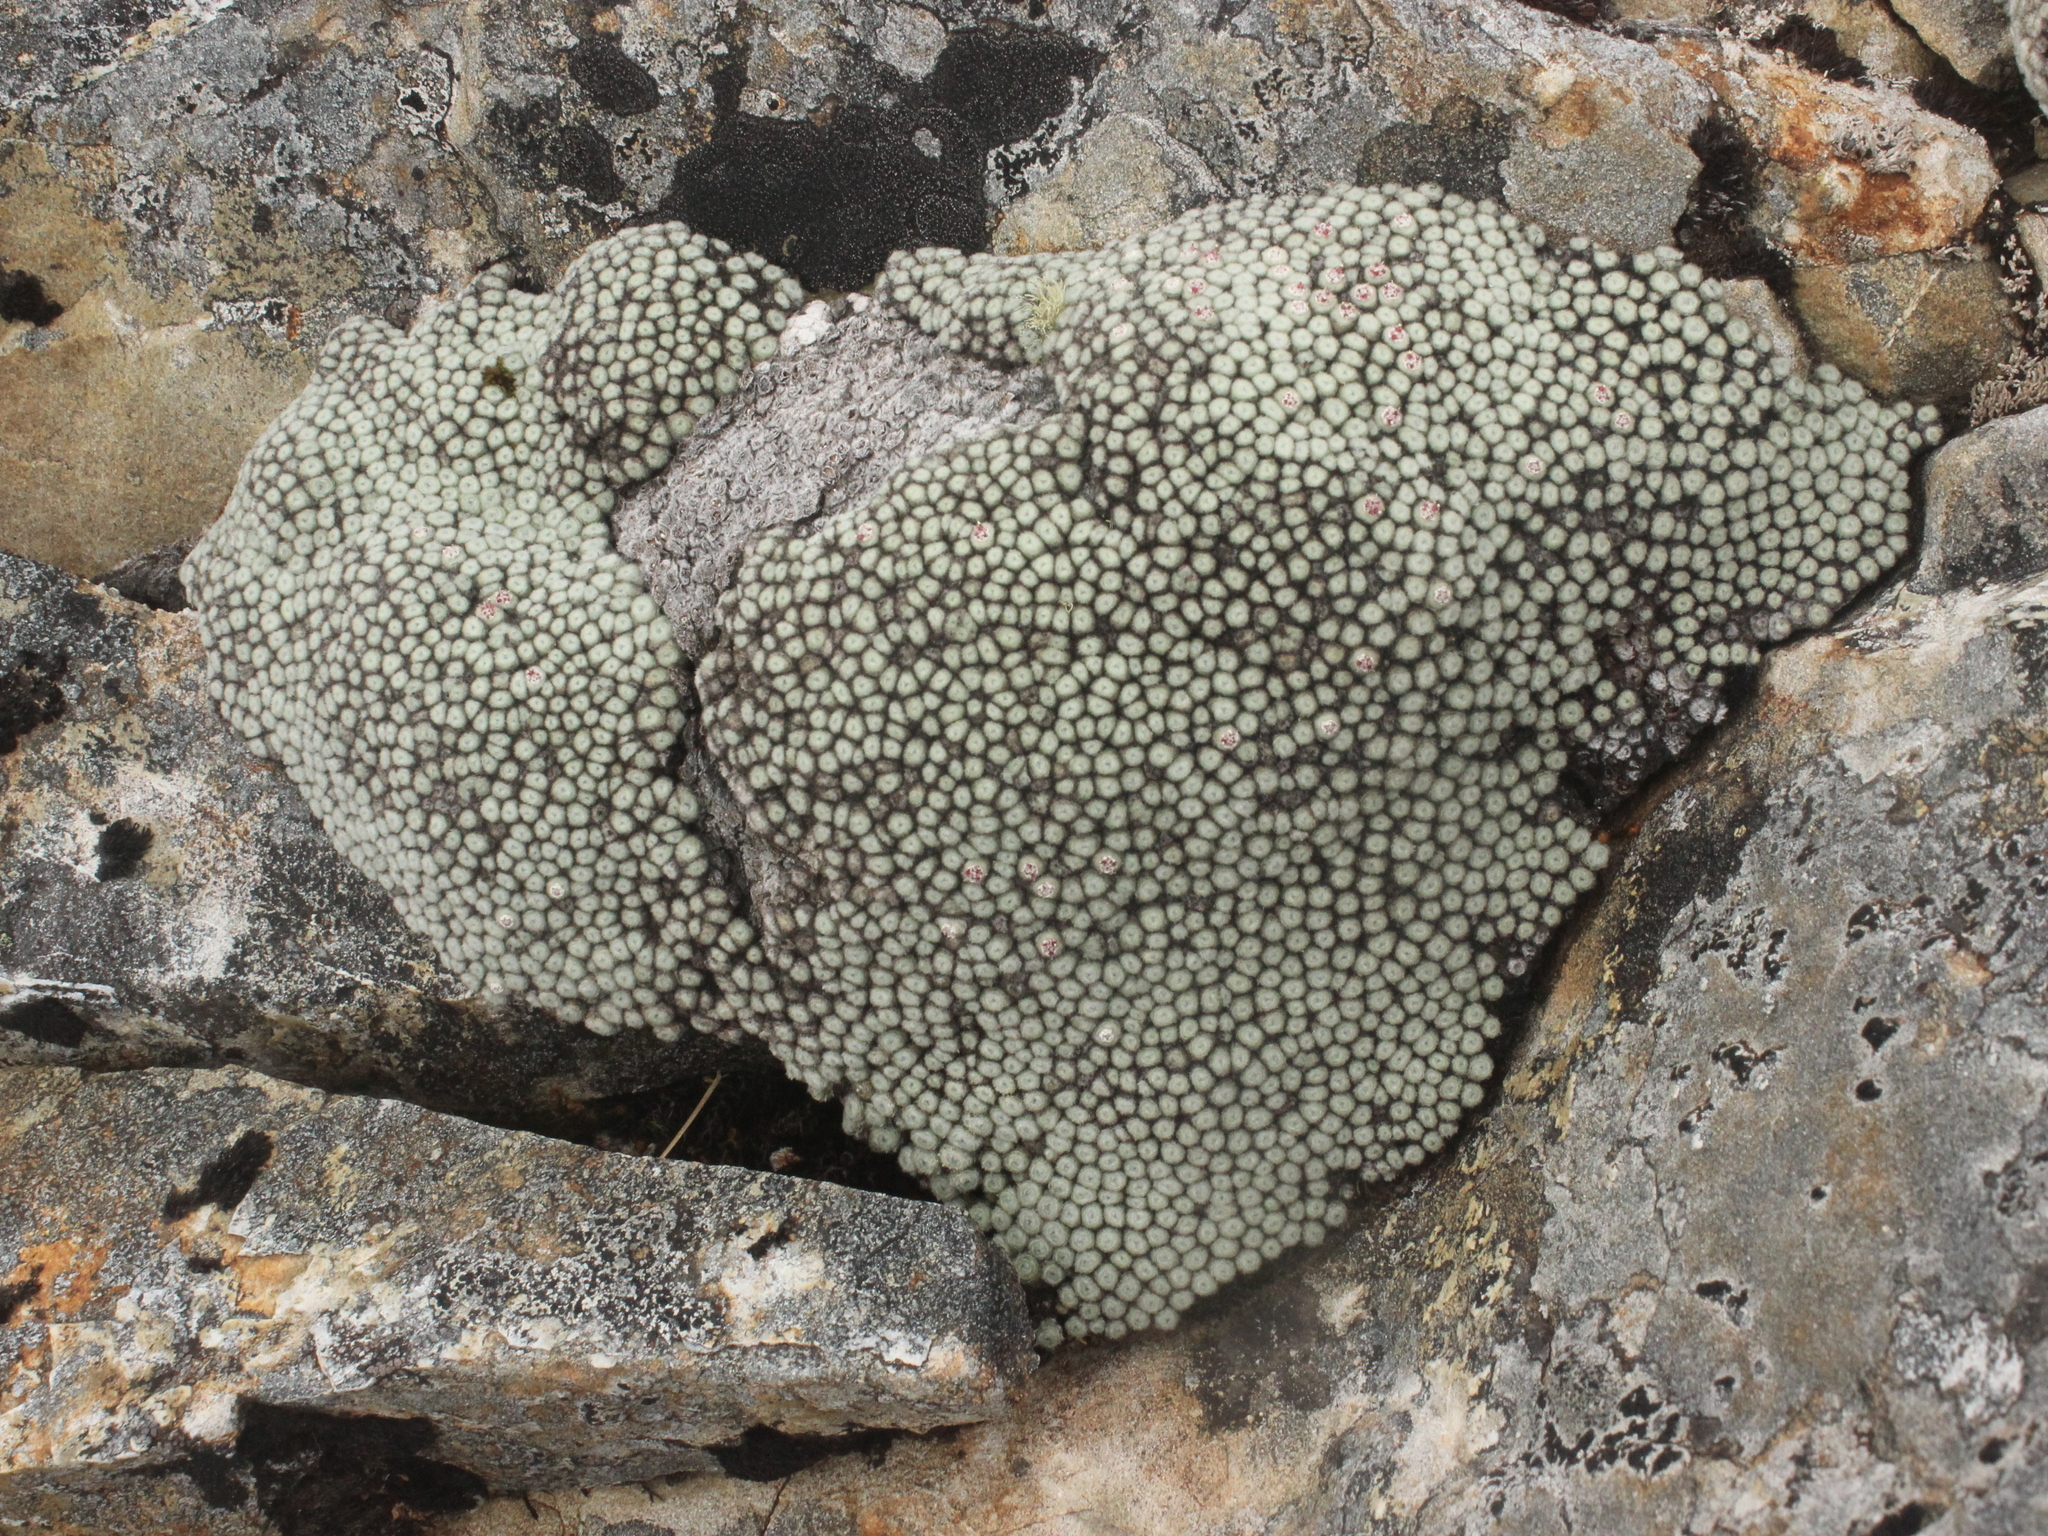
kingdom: Plantae
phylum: Tracheophyta
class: Magnoliopsida
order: Asterales
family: Asteraceae
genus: Raoulia
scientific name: Raoulia rubra
